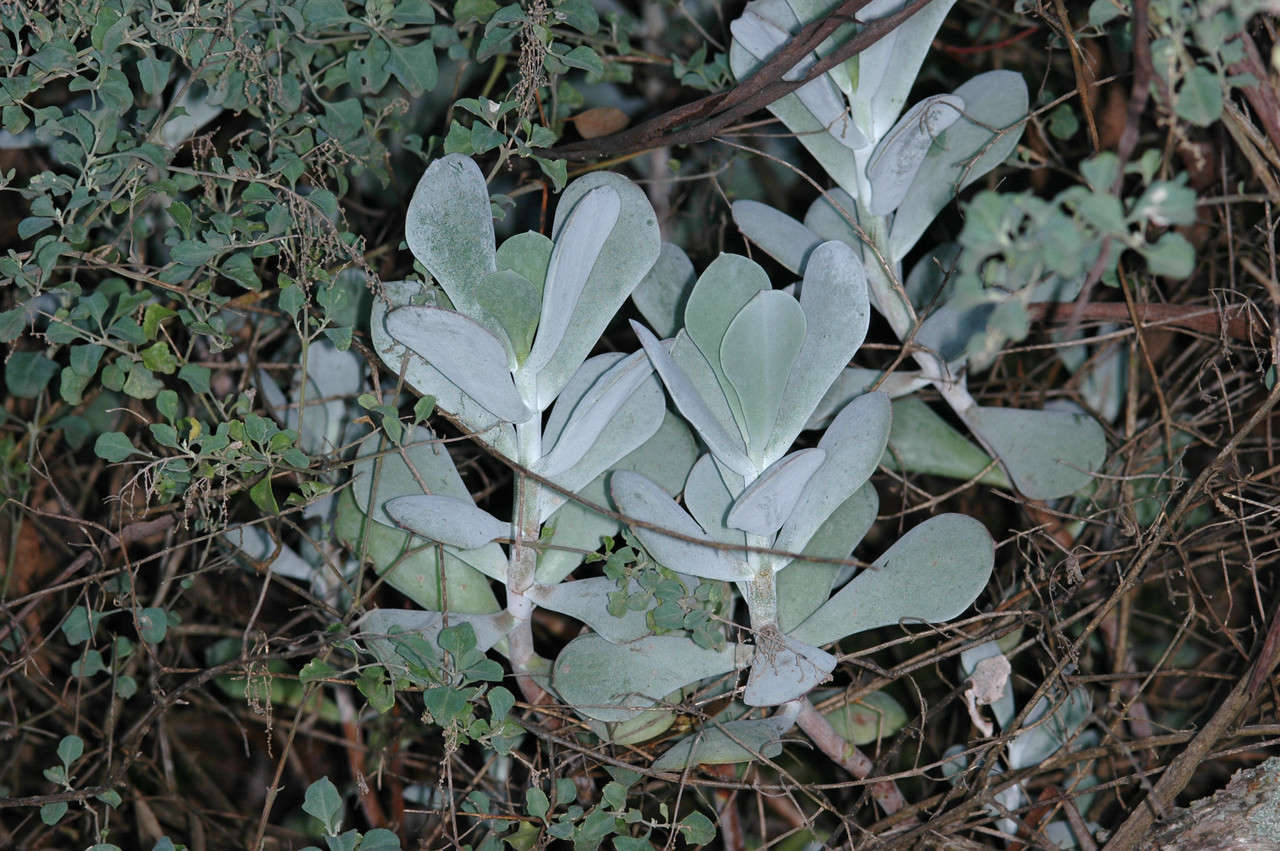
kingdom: Plantae
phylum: Tracheophyta
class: Magnoliopsida
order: Saxifragales
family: Crassulaceae
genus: Cotyledon
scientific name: Cotyledon orbiculata
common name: Pig's ear
